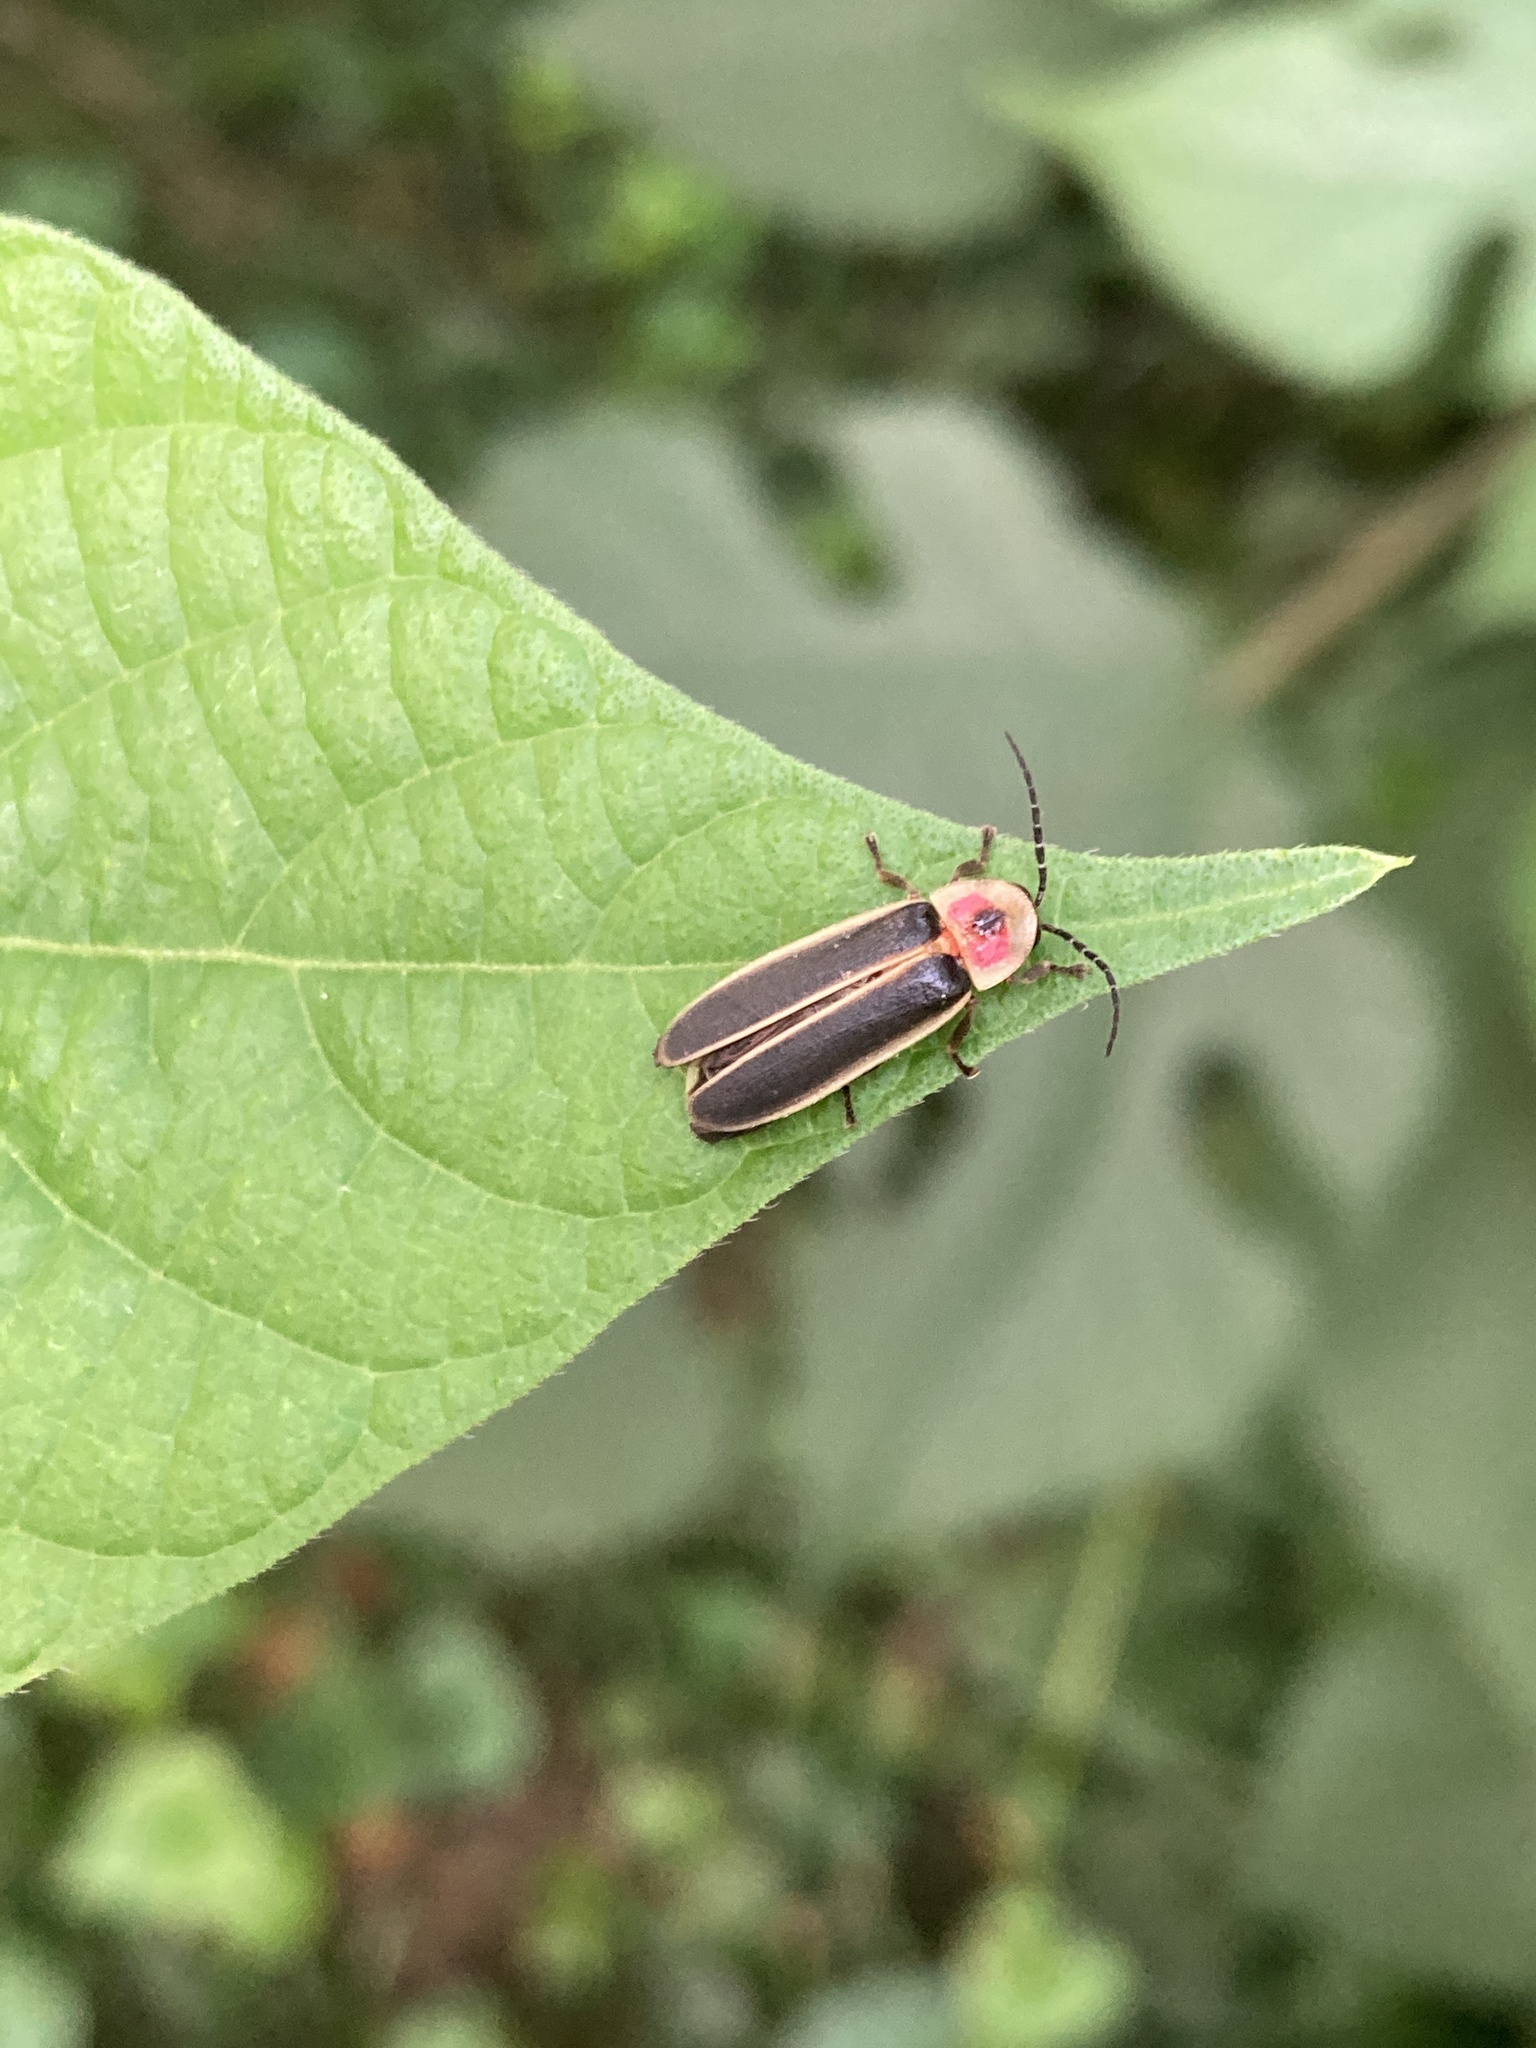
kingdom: Animalia
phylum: Arthropoda
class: Insecta
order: Coleoptera
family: Lampyridae
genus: Photinus
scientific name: Photinus pyralis
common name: Big dipper firefly
